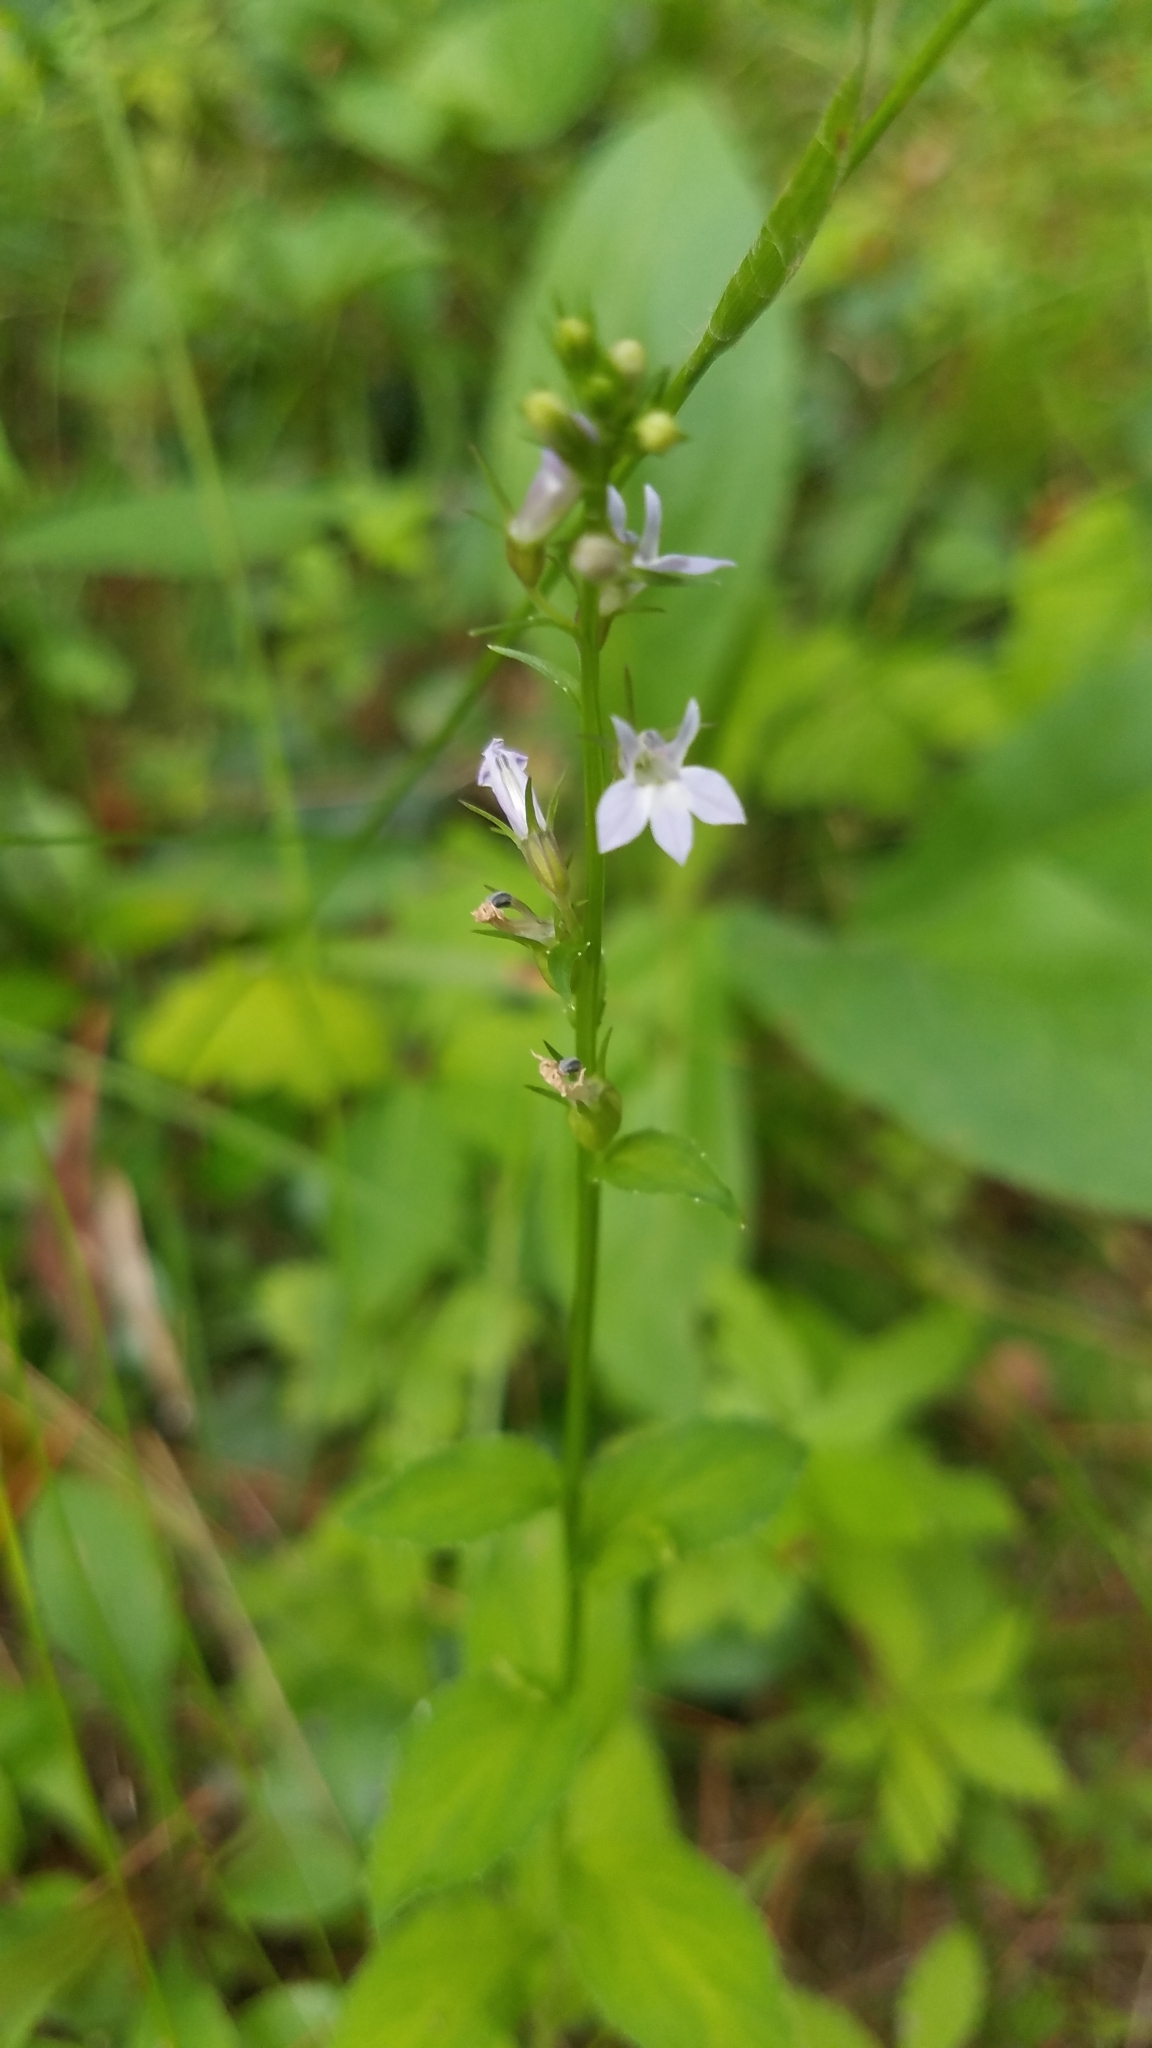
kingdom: Plantae
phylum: Tracheophyta
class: Magnoliopsida
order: Asterales
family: Campanulaceae
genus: Lobelia
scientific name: Lobelia inflata
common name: Indian tobacco
